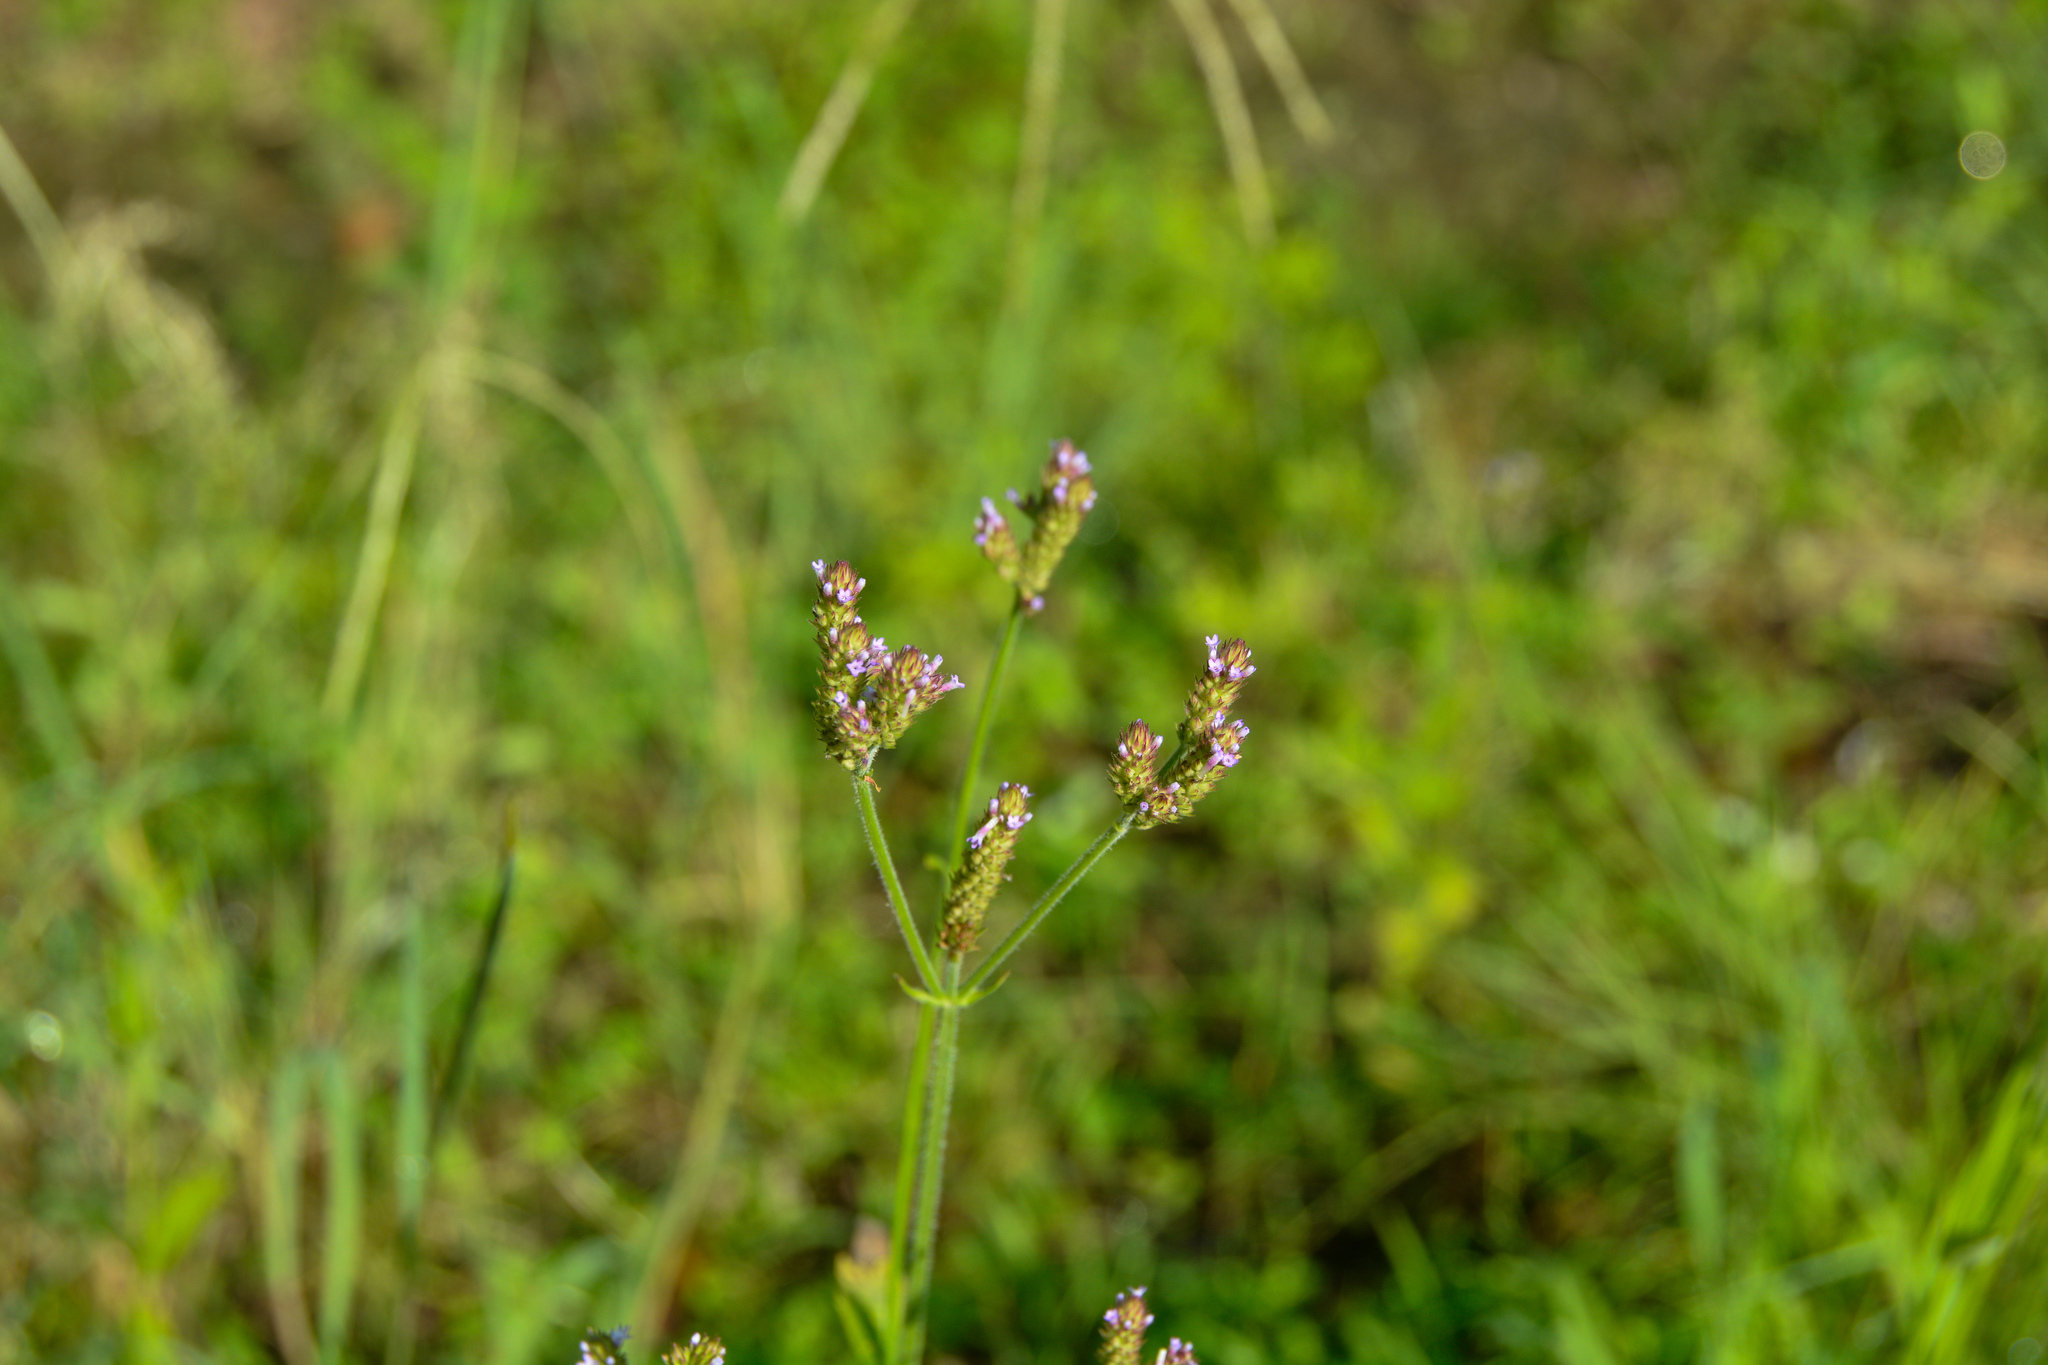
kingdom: Plantae
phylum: Tracheophyta
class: Magnoliopsida
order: Lamiales
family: Verbenaceae
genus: Verbena
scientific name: Verbena brasiliensis
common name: Brazilian vervain
